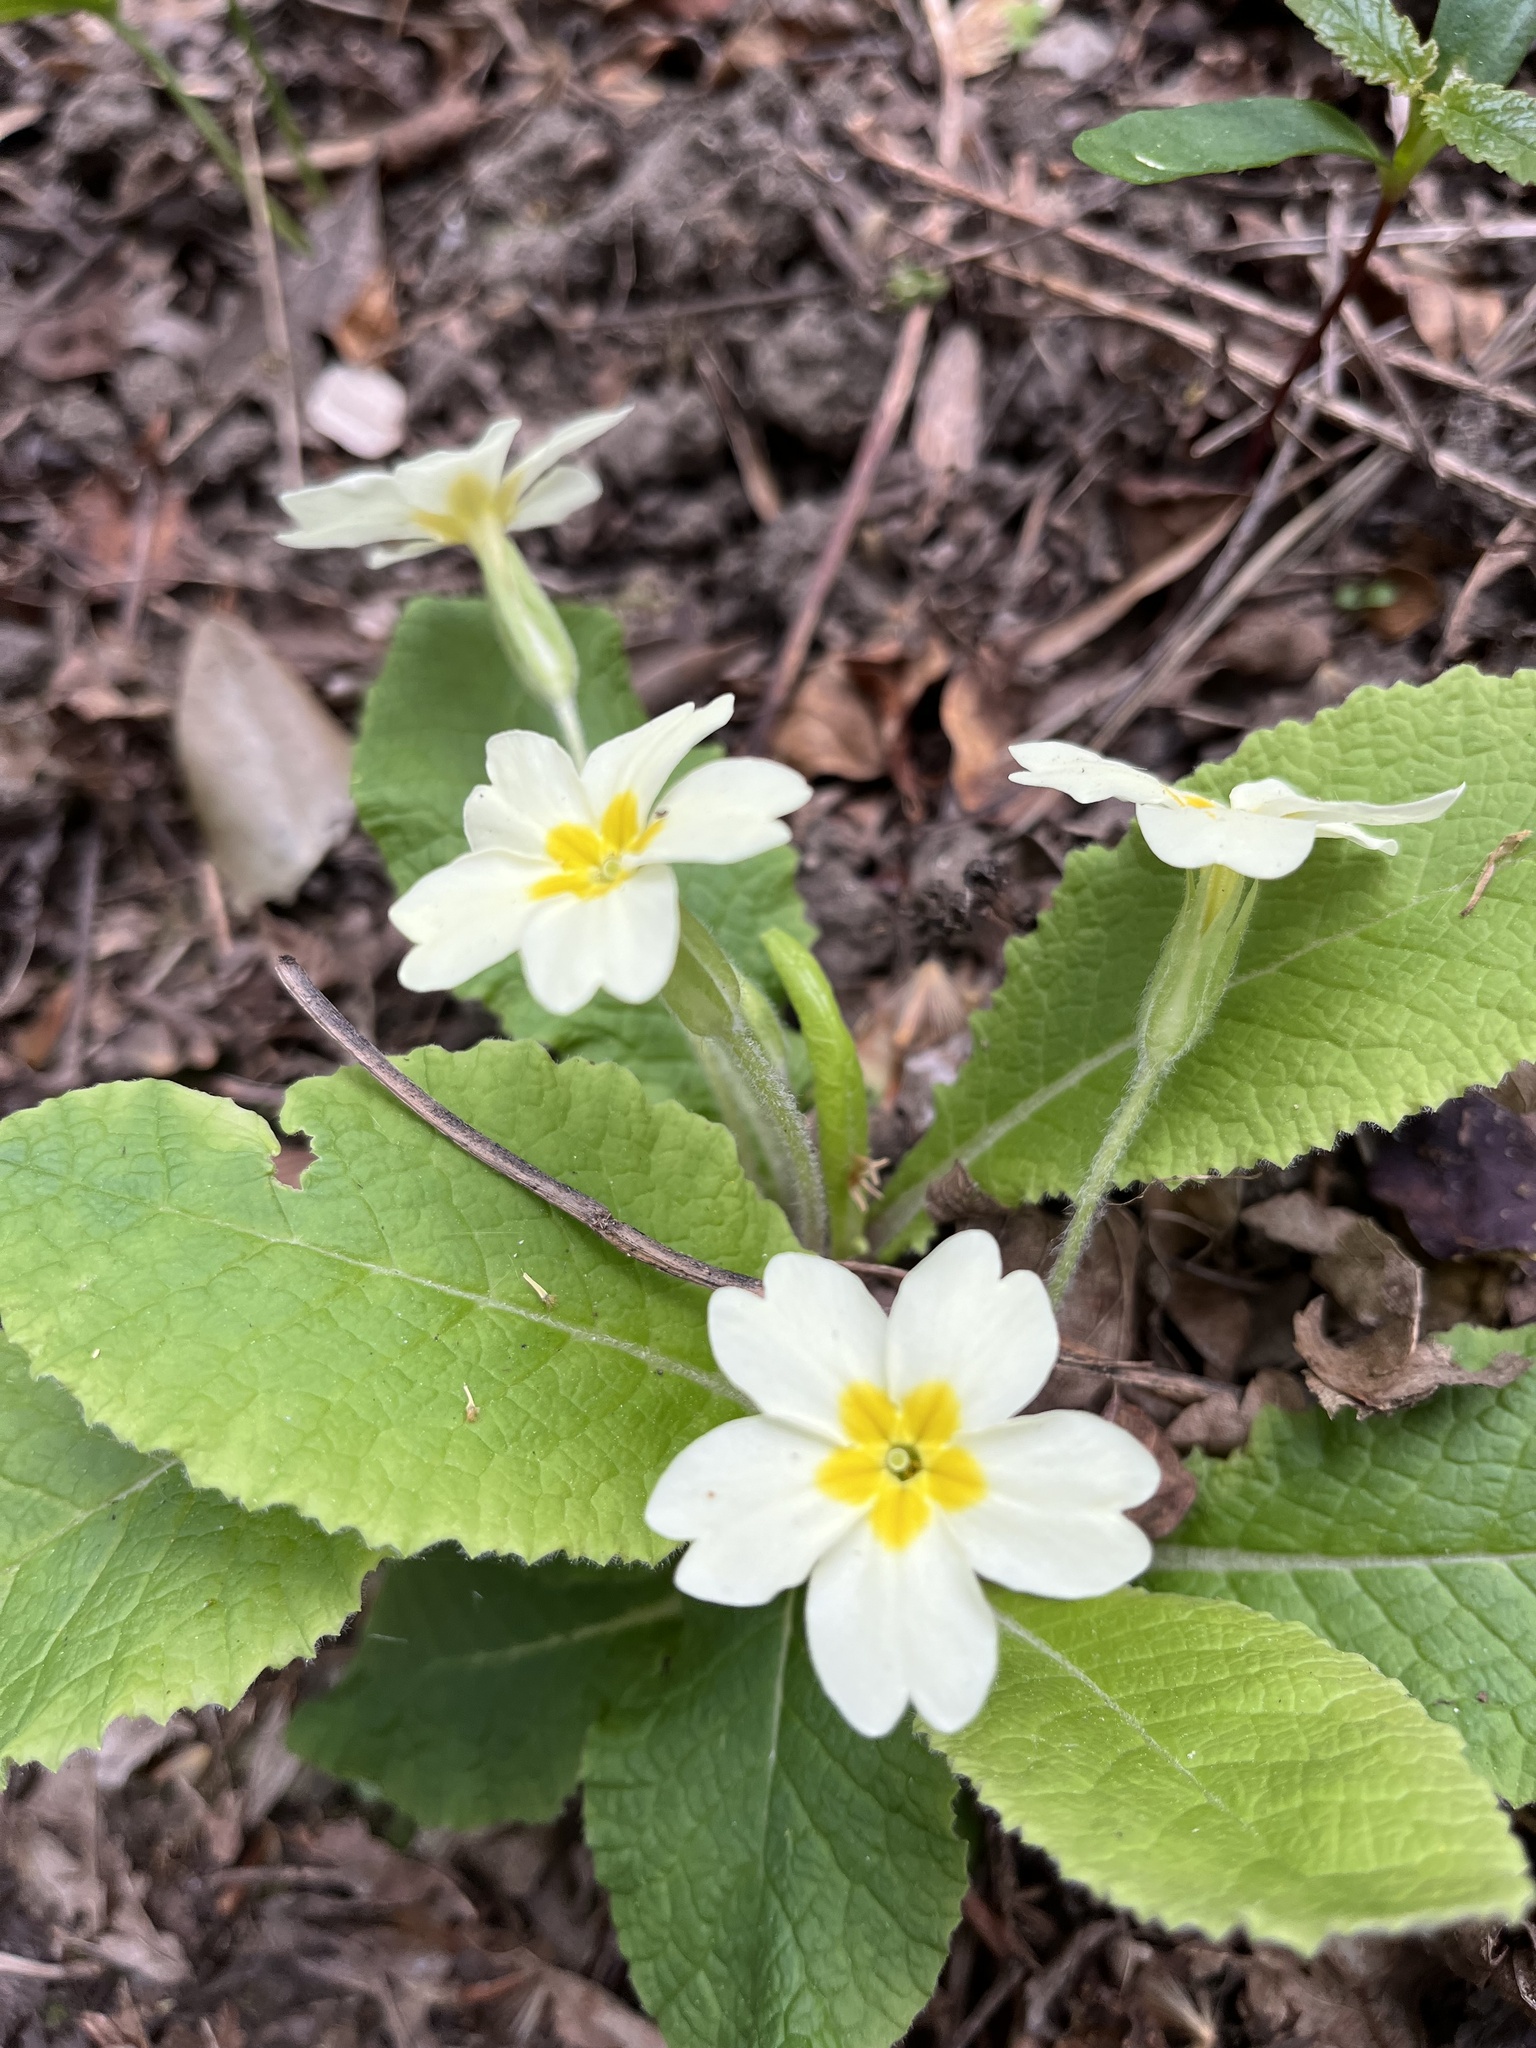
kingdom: Plantae
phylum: Tracheophyta
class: Magnoliopsida
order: Ericales
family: Primulaceae
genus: Primula
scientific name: Primula vulgaris
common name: Primrose
